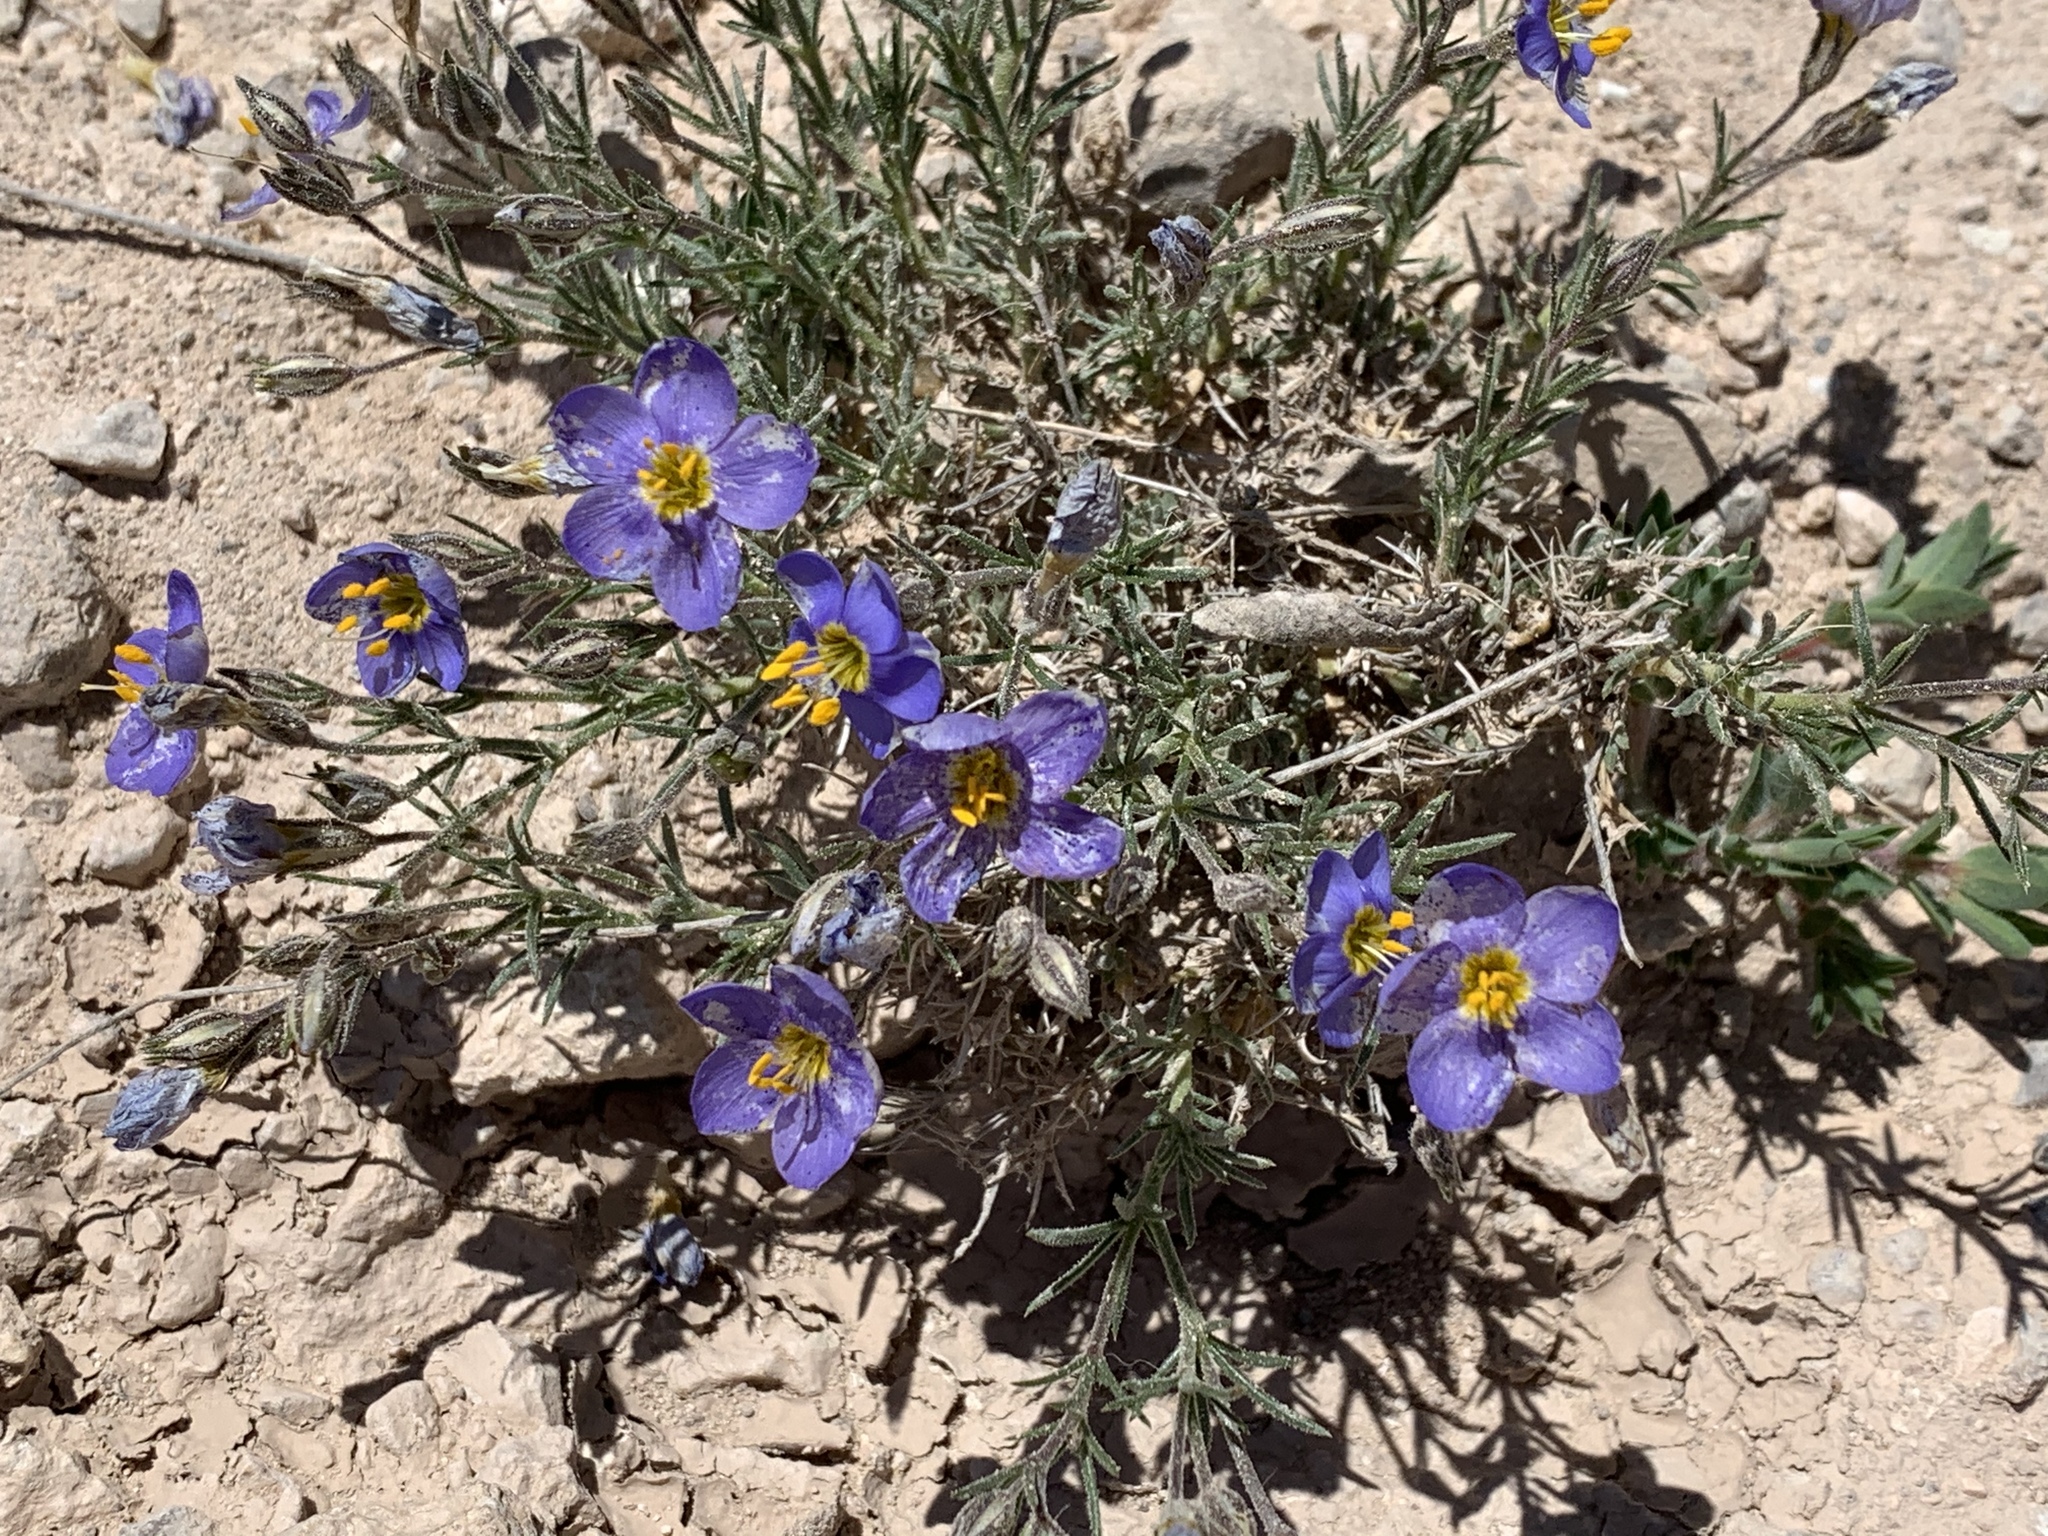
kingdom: Plantae
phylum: Tracheophyta
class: Magnoliopsida
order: Ericales
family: Polemoniaceae
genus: Giliastrum
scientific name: Giliastrum acerosum
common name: Bluebowls
